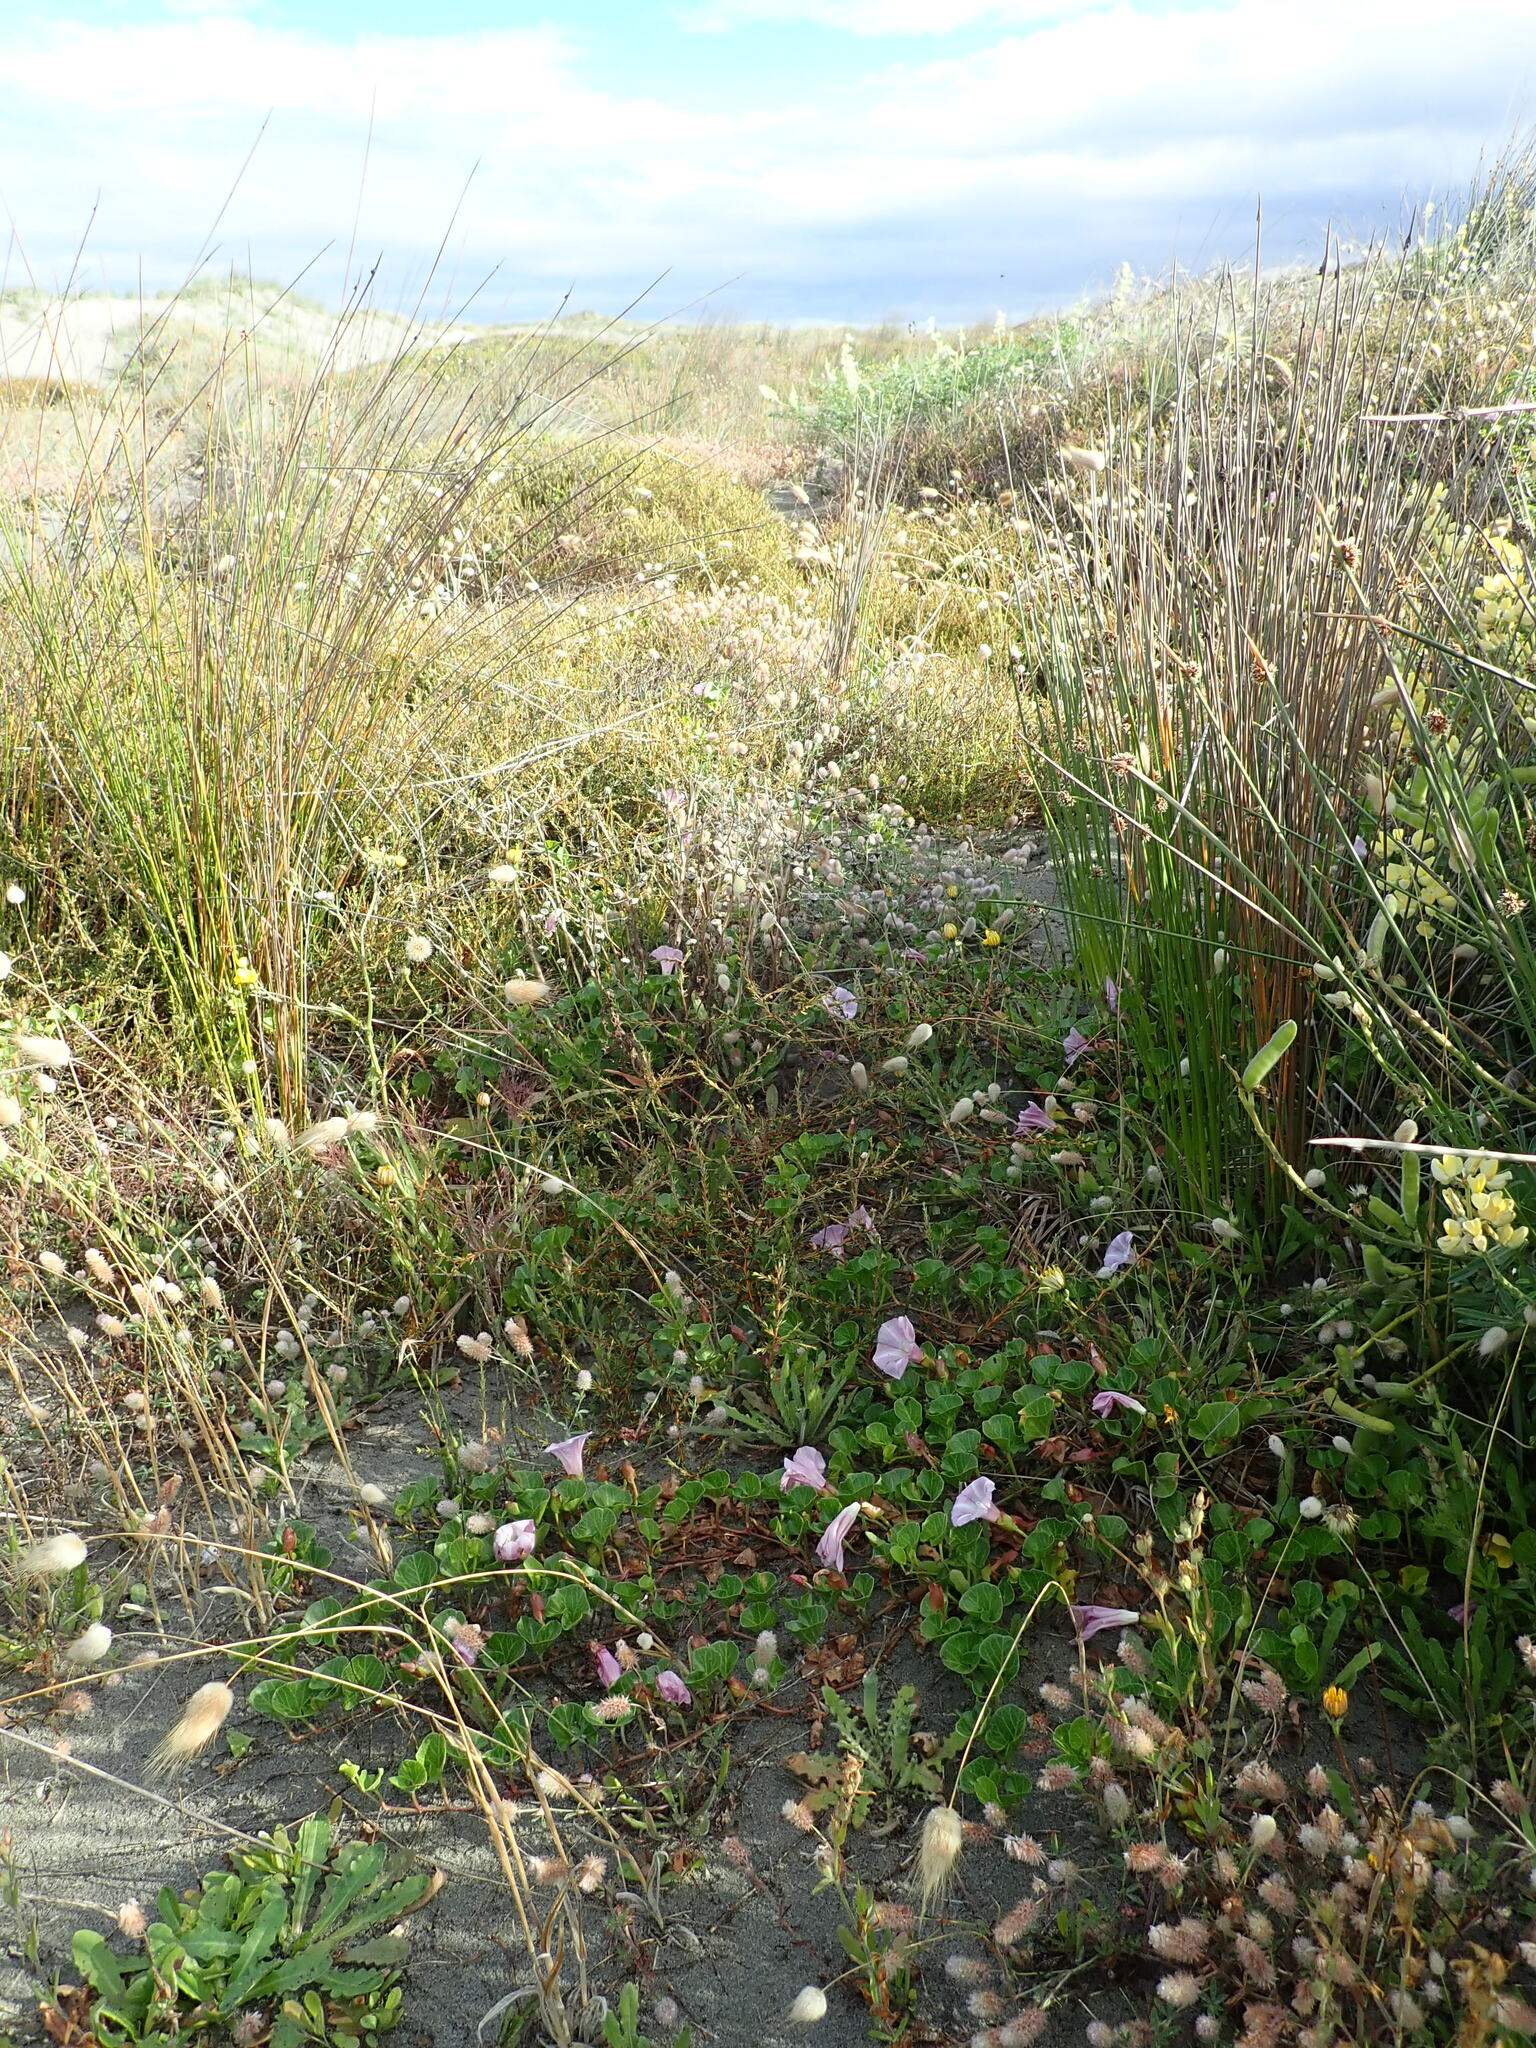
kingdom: Plantae
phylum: Tracheophyta
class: Magnoliopsida
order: Solanales
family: Convolvulaceae
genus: Calystegia
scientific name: Calystegia soldanella
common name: Sea bindweed
